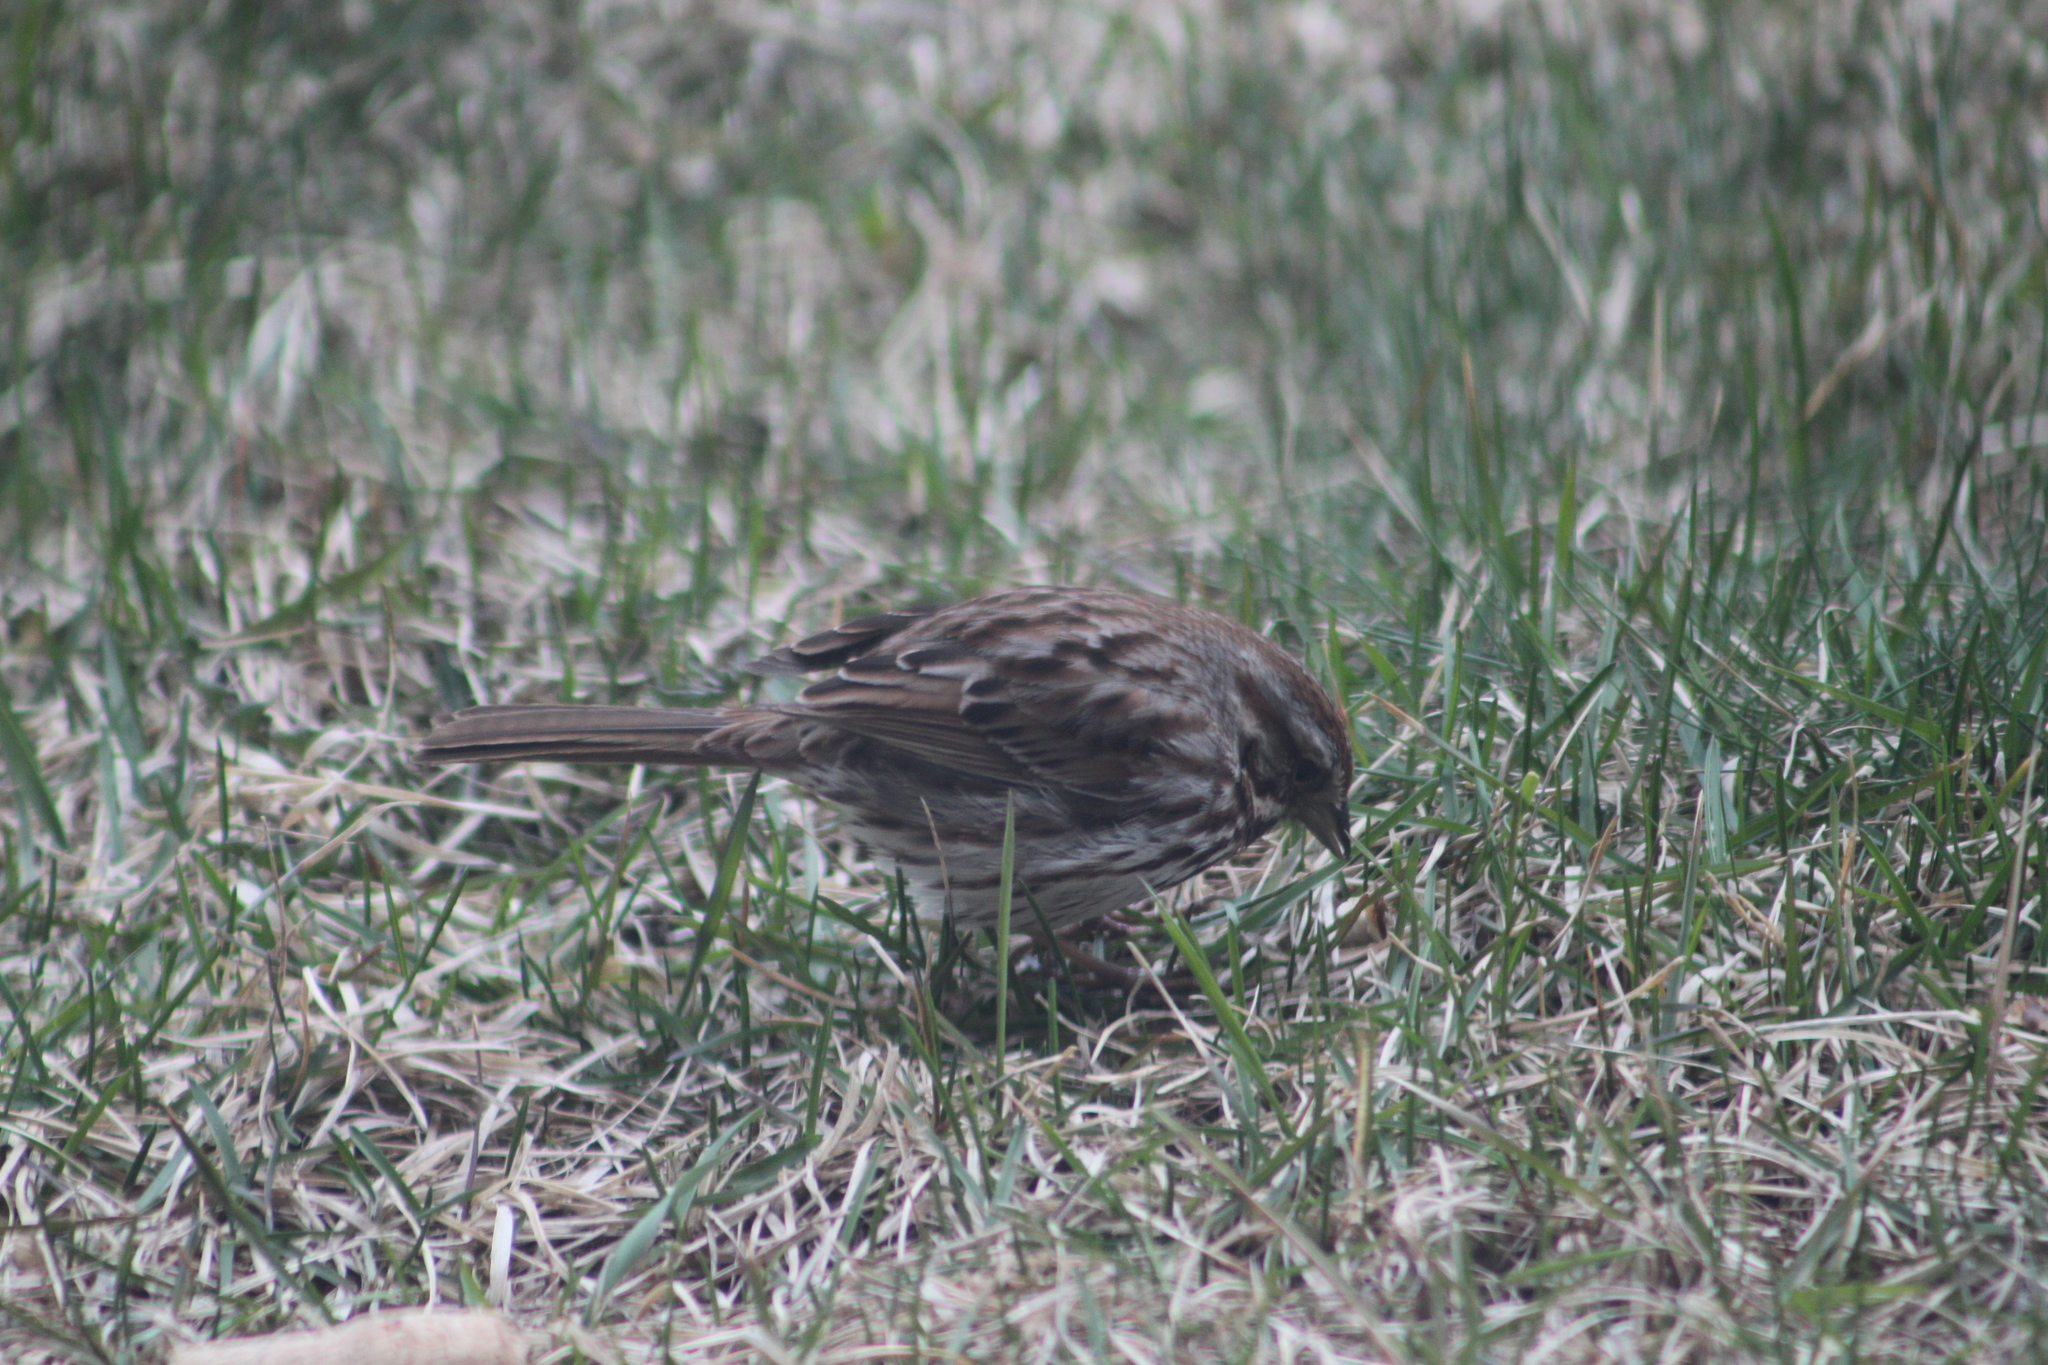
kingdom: Animalia
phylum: Chordata
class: Aves
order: Passeriformes
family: Passerellidae
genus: Melospiza
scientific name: Melospiza melodia
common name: Song sparrow
